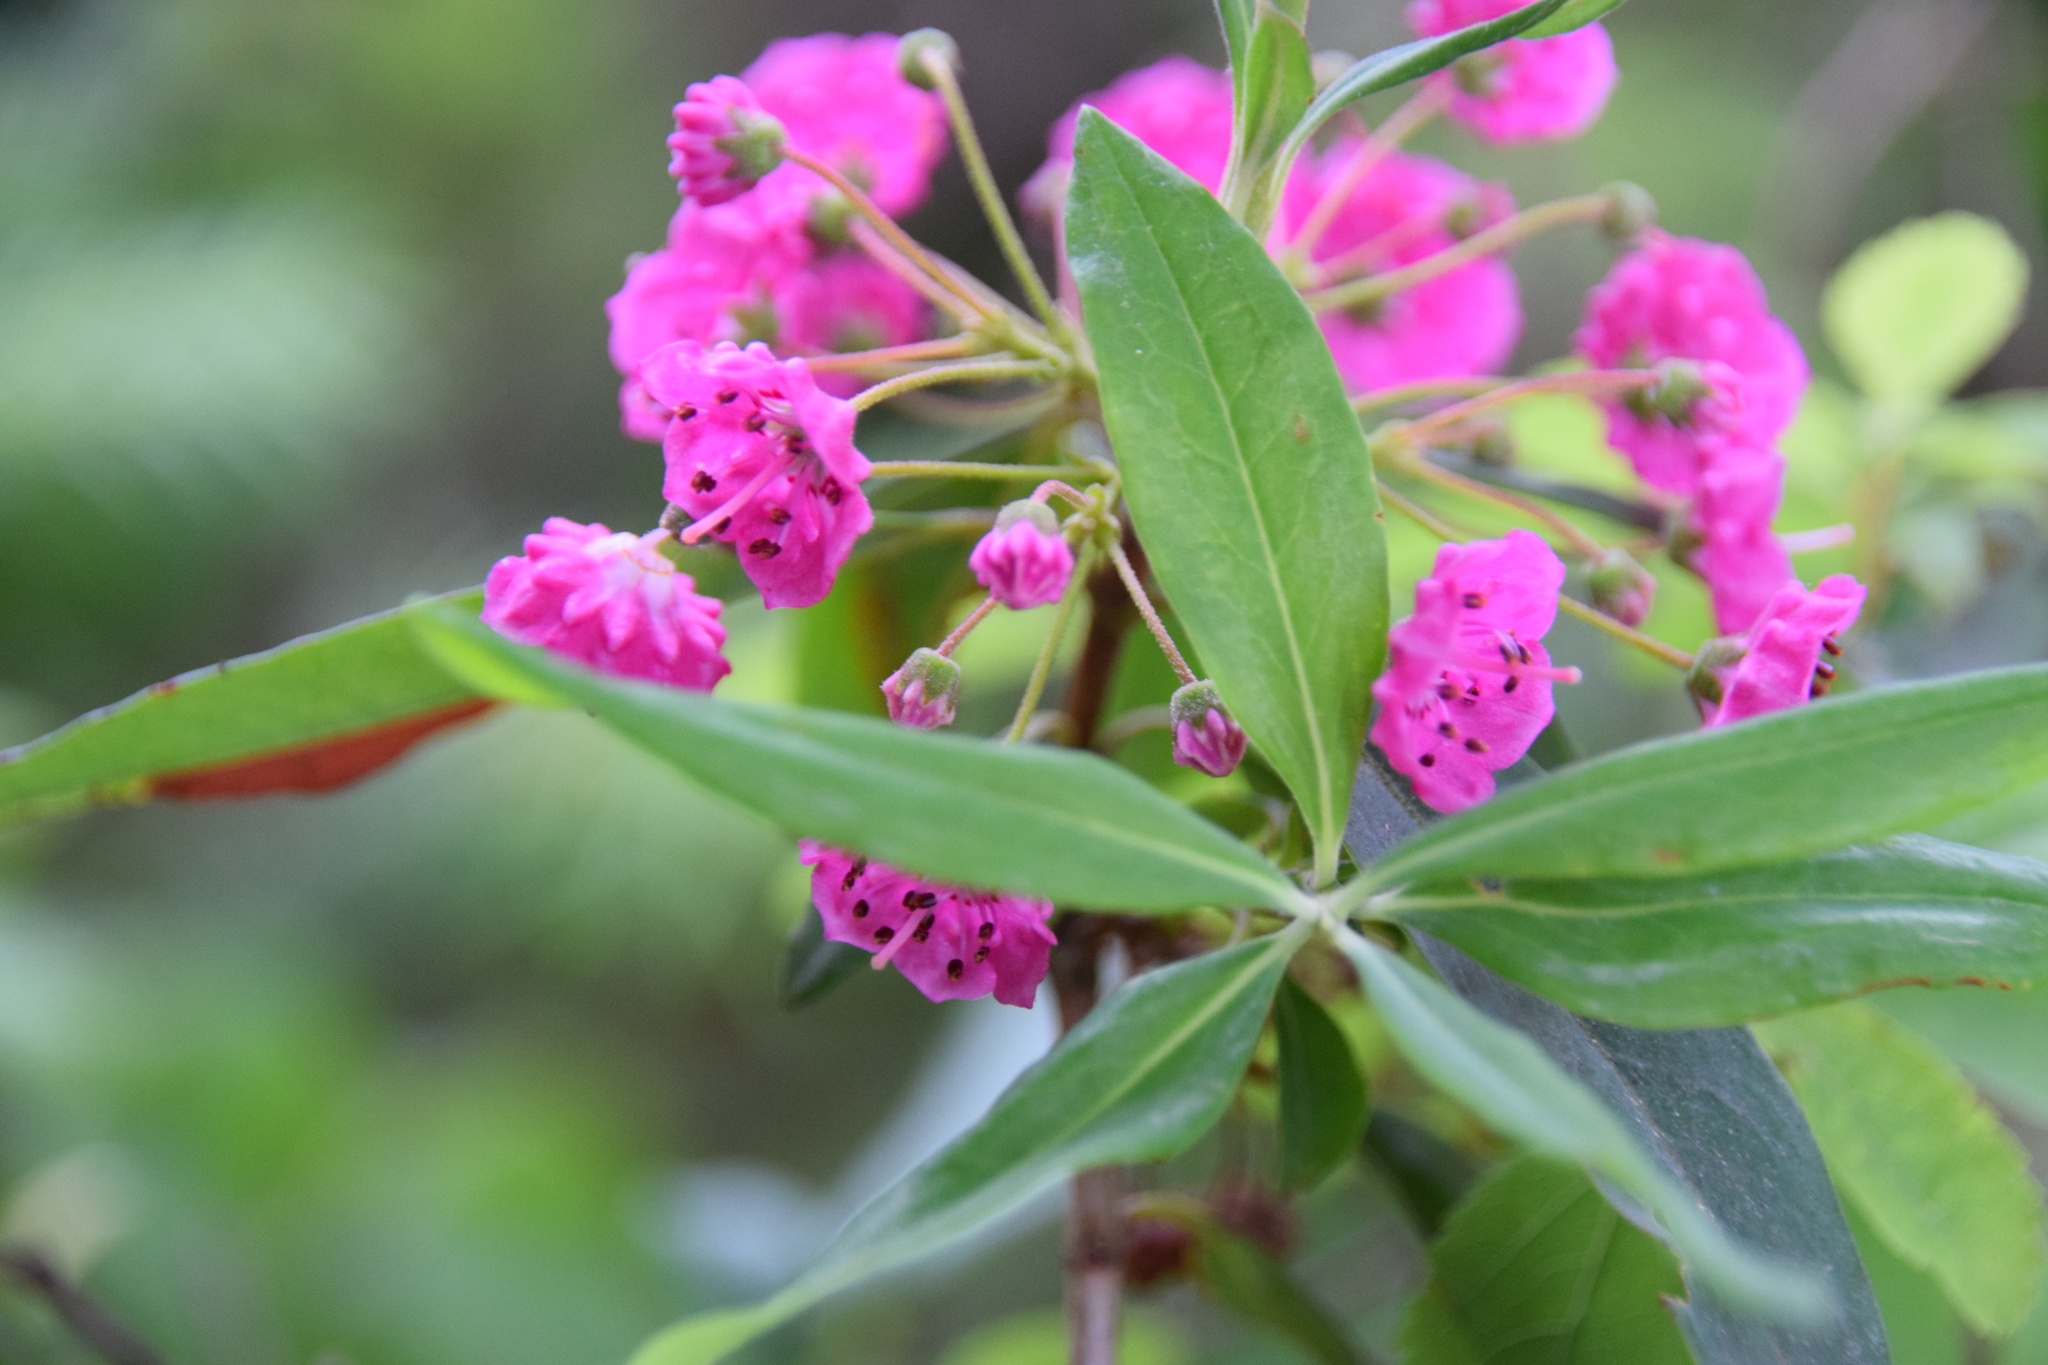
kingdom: Plantae
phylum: Tracheophyta
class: Magnoliopsida
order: Ericales
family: Ericaceae
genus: Kalmia
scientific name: Kalmia angustifolia
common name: Sheep-laurel
